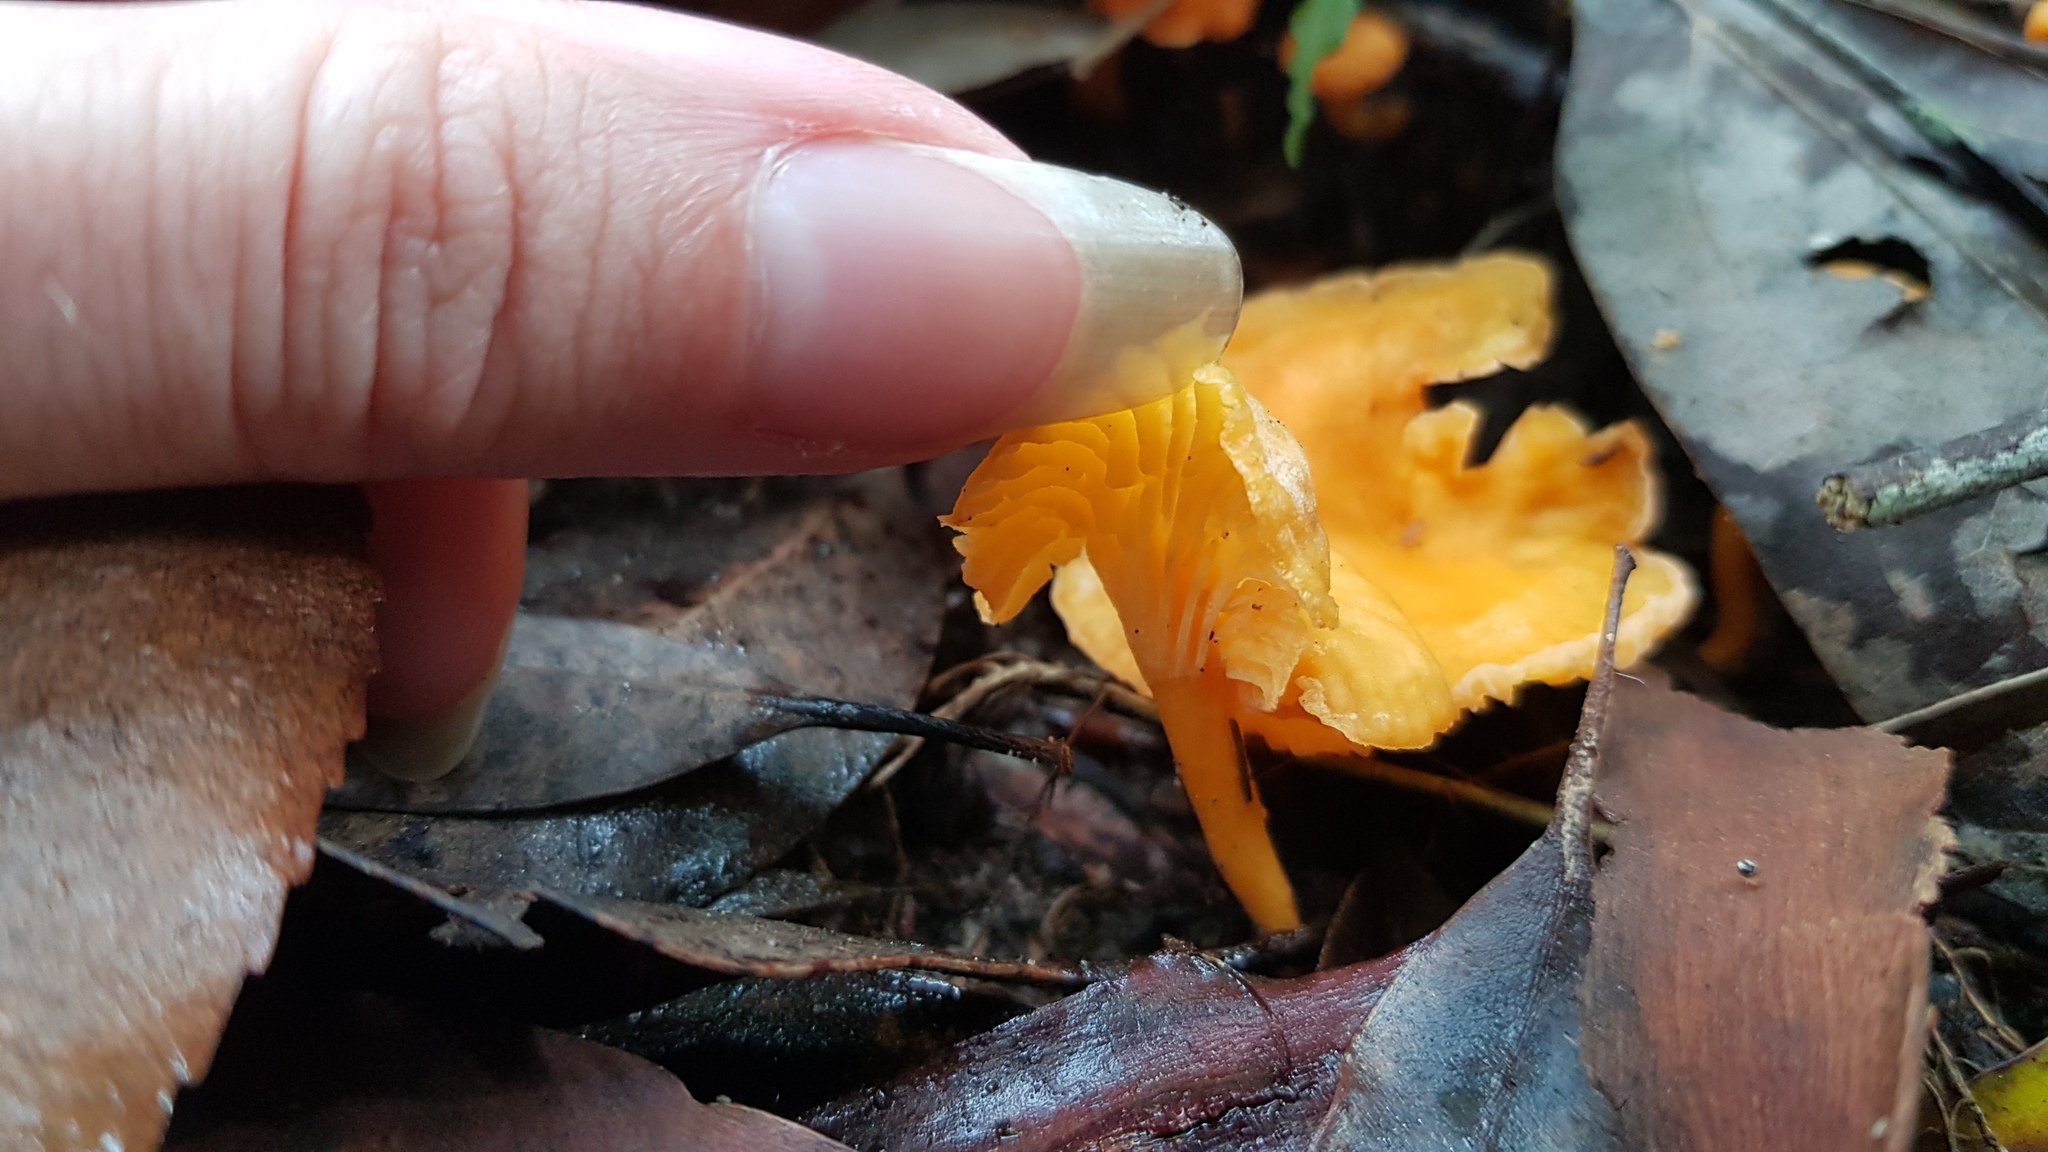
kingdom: Fungi
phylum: Basidiomycota
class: Agaricomycetes
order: Cantharellales
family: Hydnaceae
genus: Cantharellus
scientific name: Cantharellus
